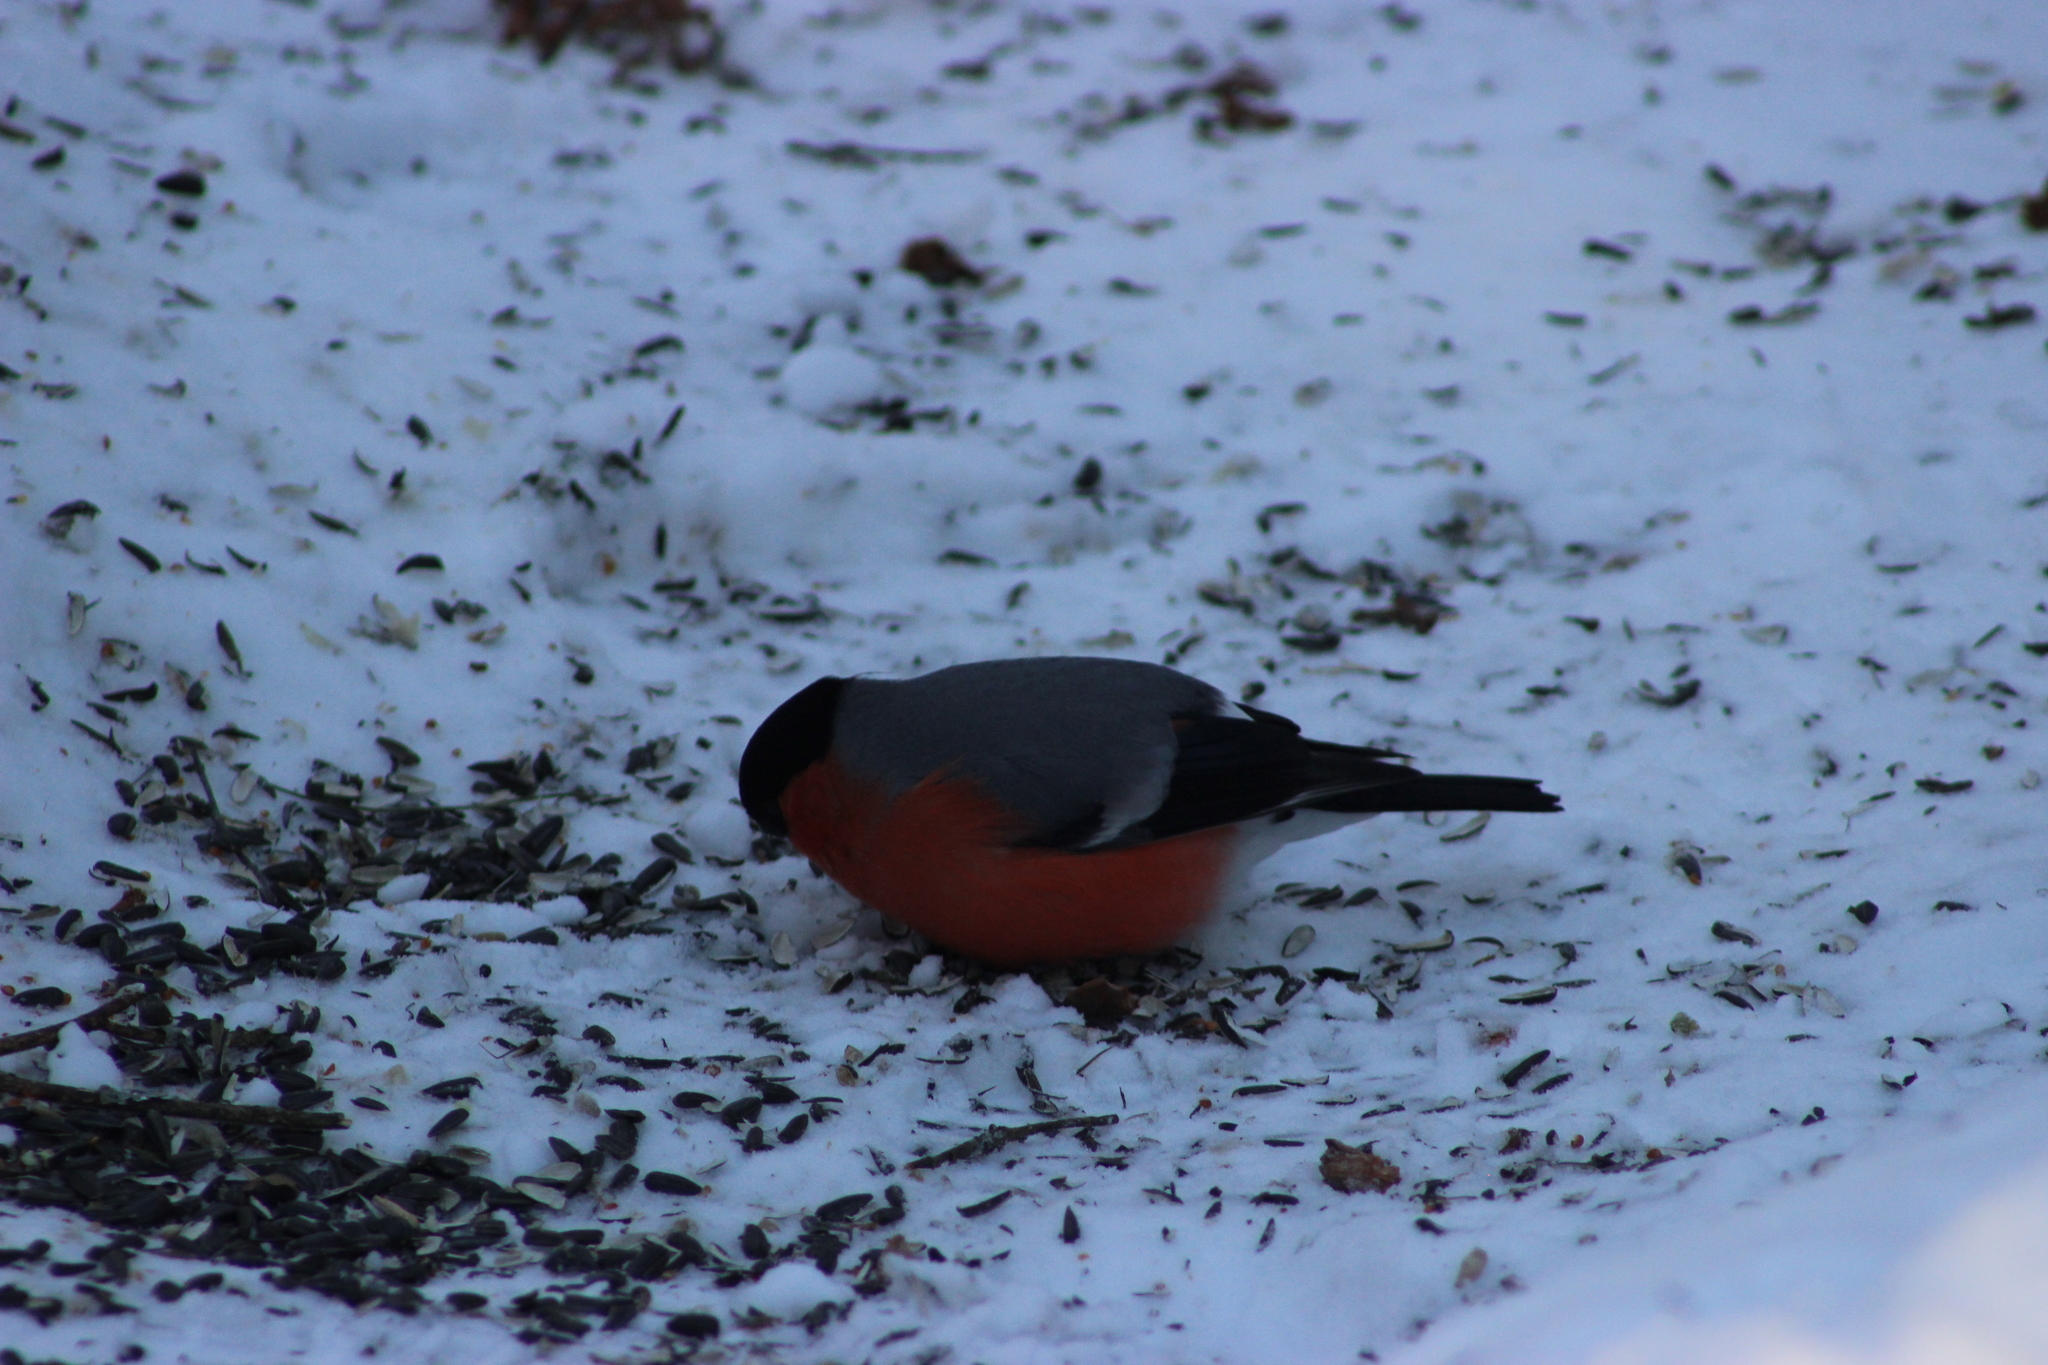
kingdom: Animalia
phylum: Chordata
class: Aves
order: Passeriformes
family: Fringillidae
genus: Pyrrhula
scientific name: Pyrrhula pyrrhula
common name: Eurasian bullfinch
